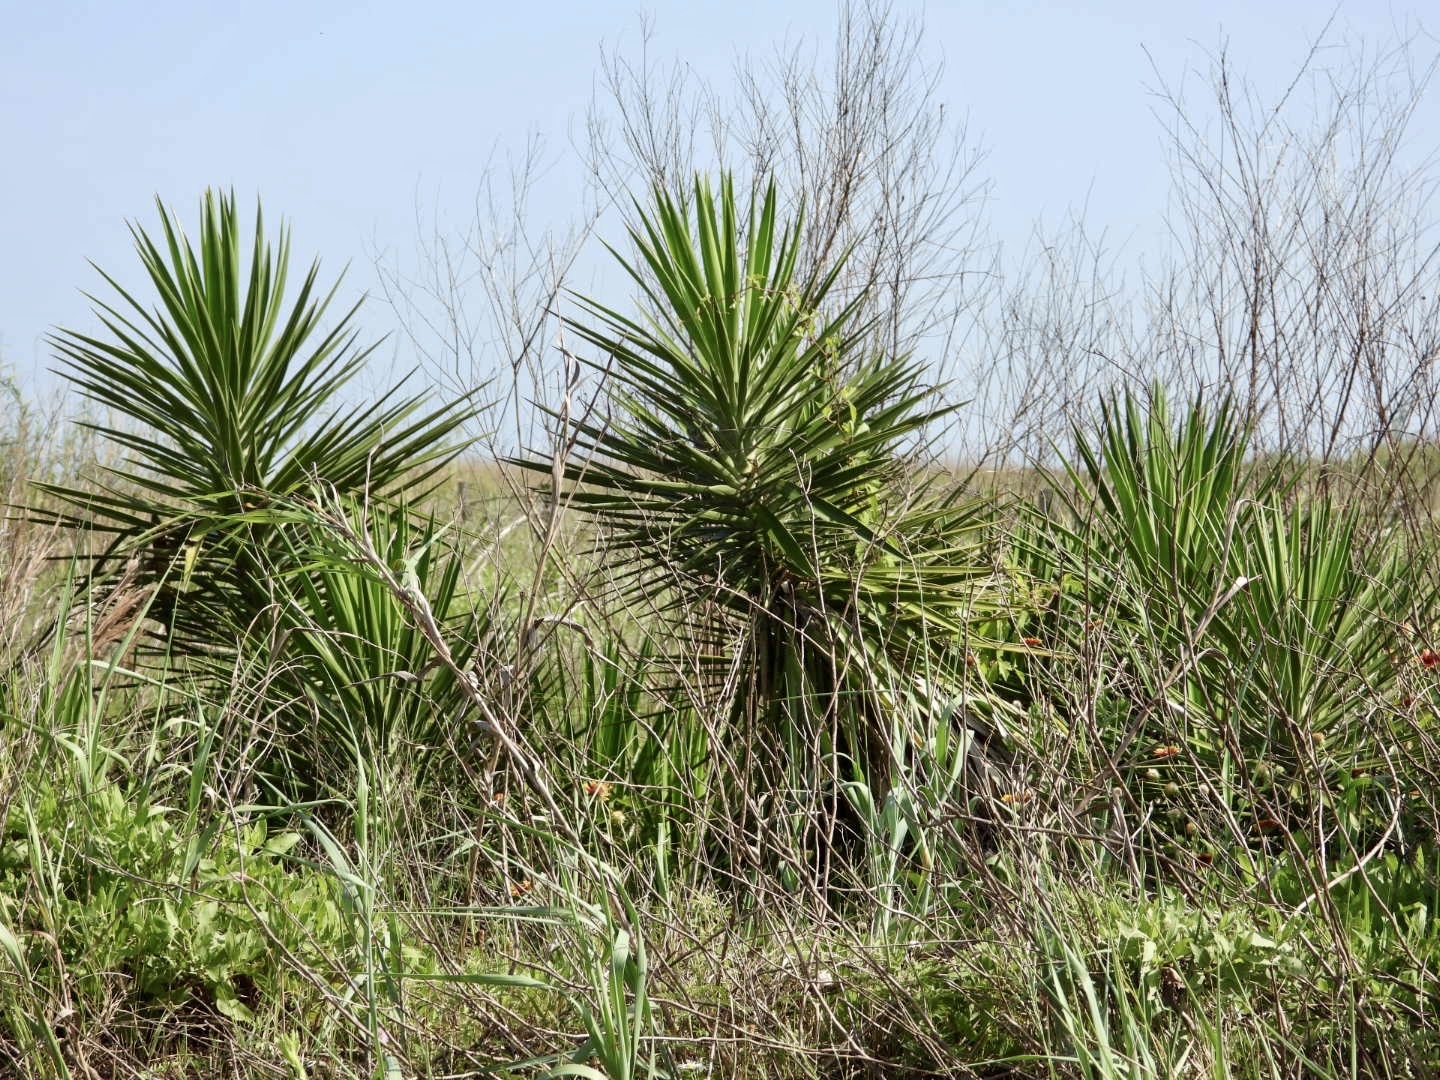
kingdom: Plantae
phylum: Tracheophyta
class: Liliopsida
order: Asparagales
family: Asparagaceae
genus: Yucca
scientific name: Yucca aloifolia
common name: Aloe yucca
